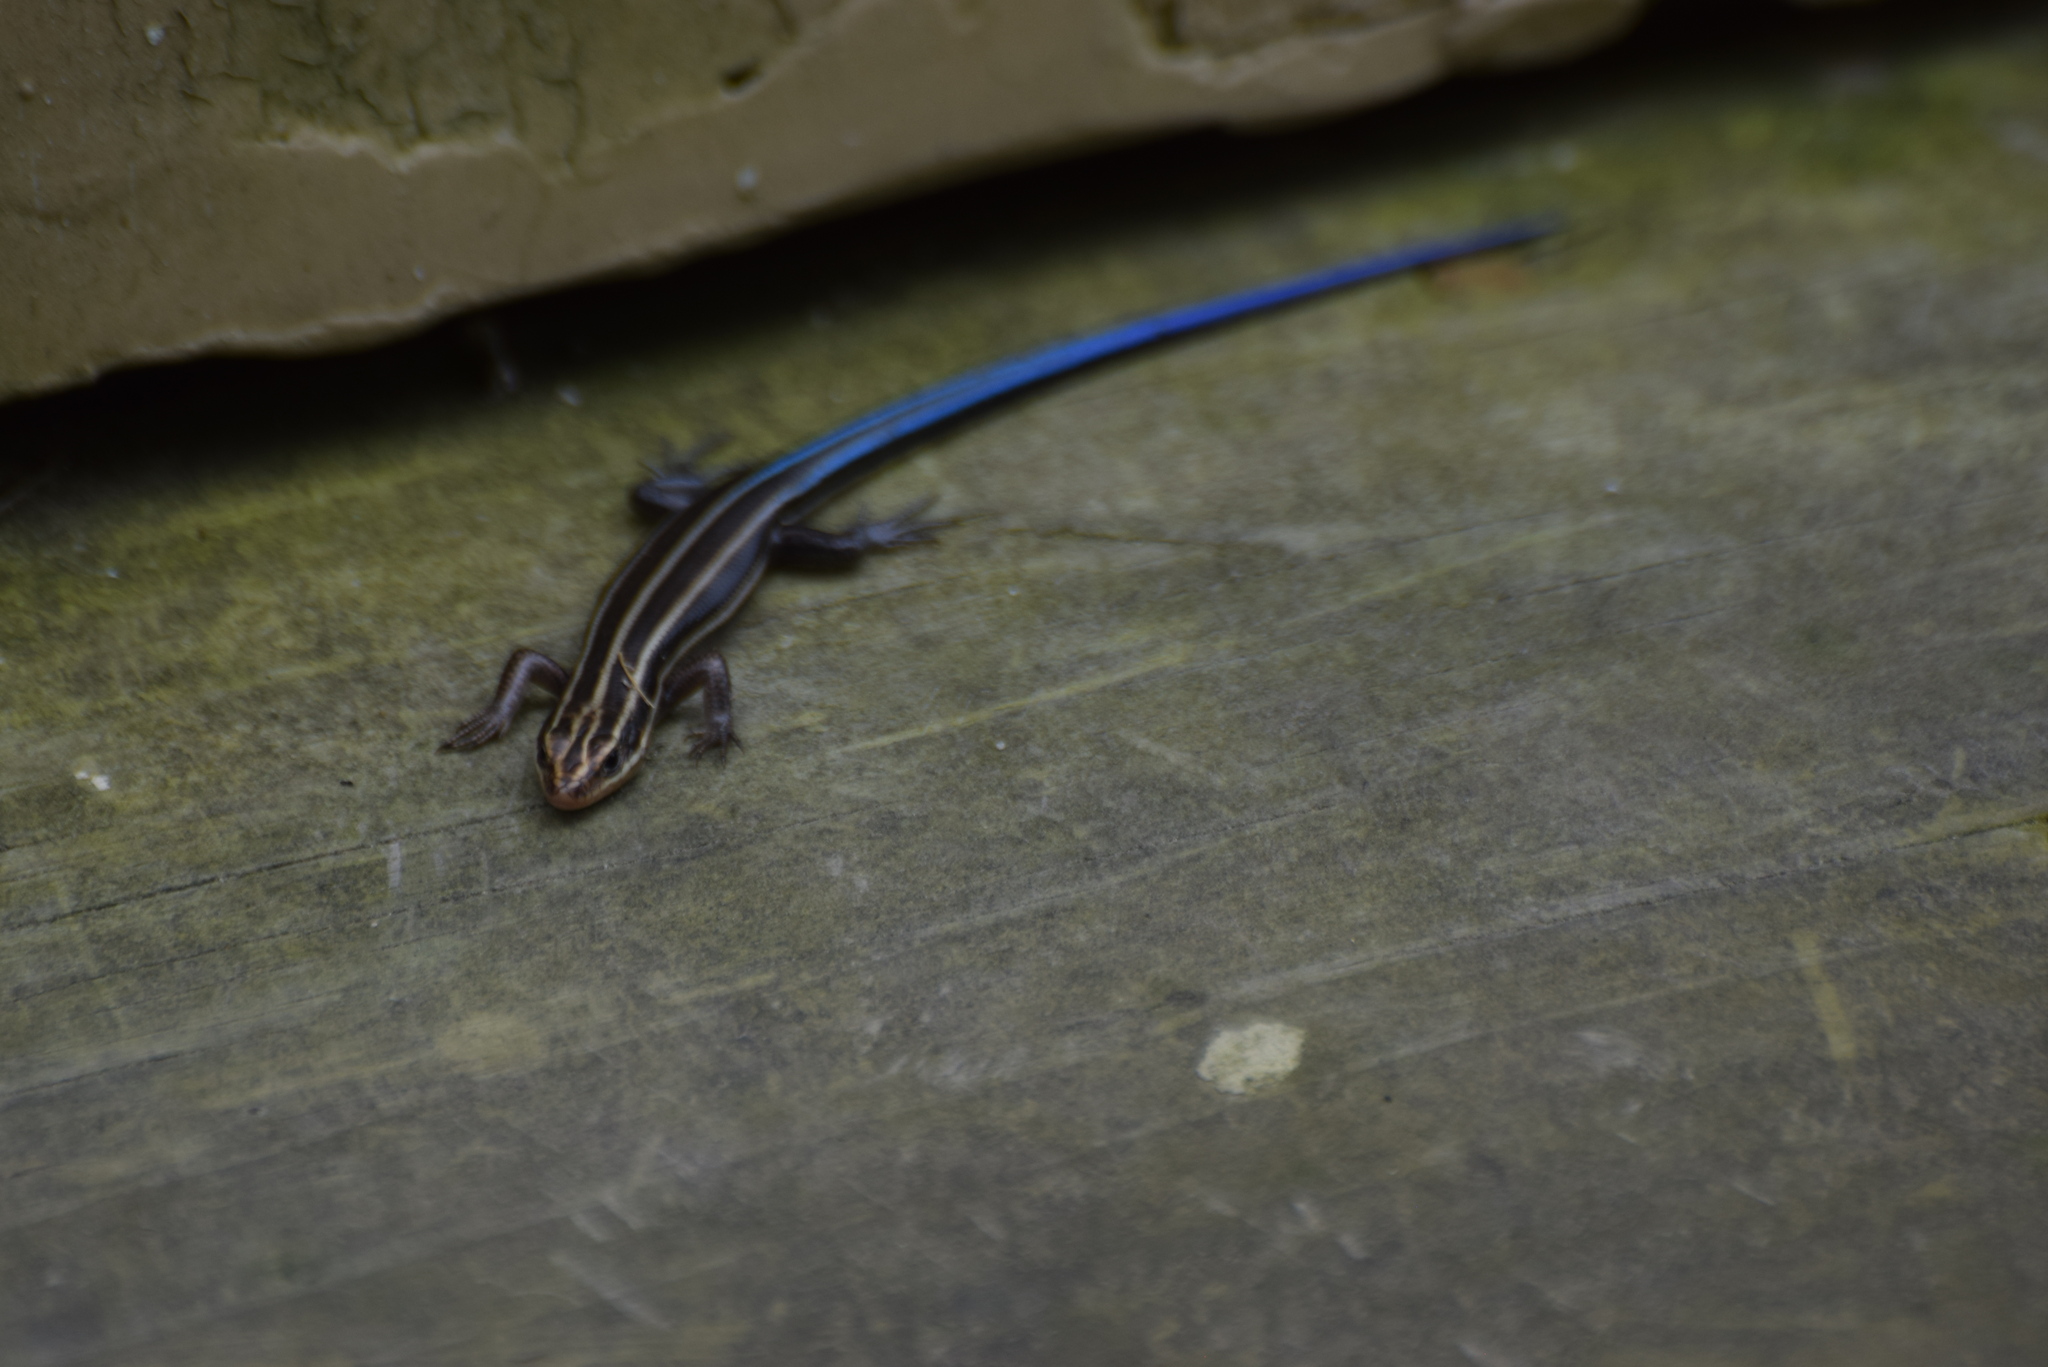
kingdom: Animalia
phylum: Chordata
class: Squamata
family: Scincidae
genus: Plestiodon
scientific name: Plestiodon fasciatus
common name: Five-lined skink
